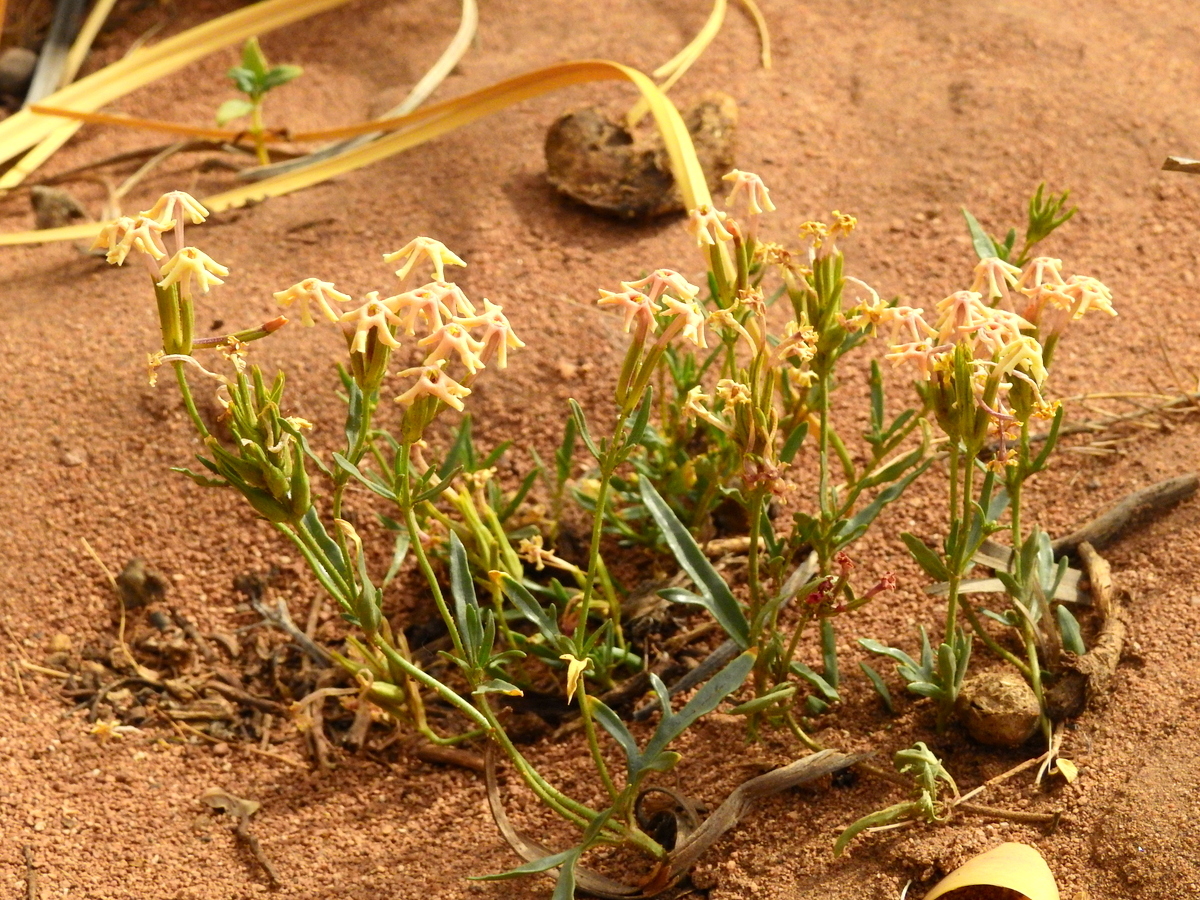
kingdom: Plantae
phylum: Tracheophyta
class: Magnoliopsida
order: Lamiales
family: Verbenaceae
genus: Verbena
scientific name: Verbena flava
